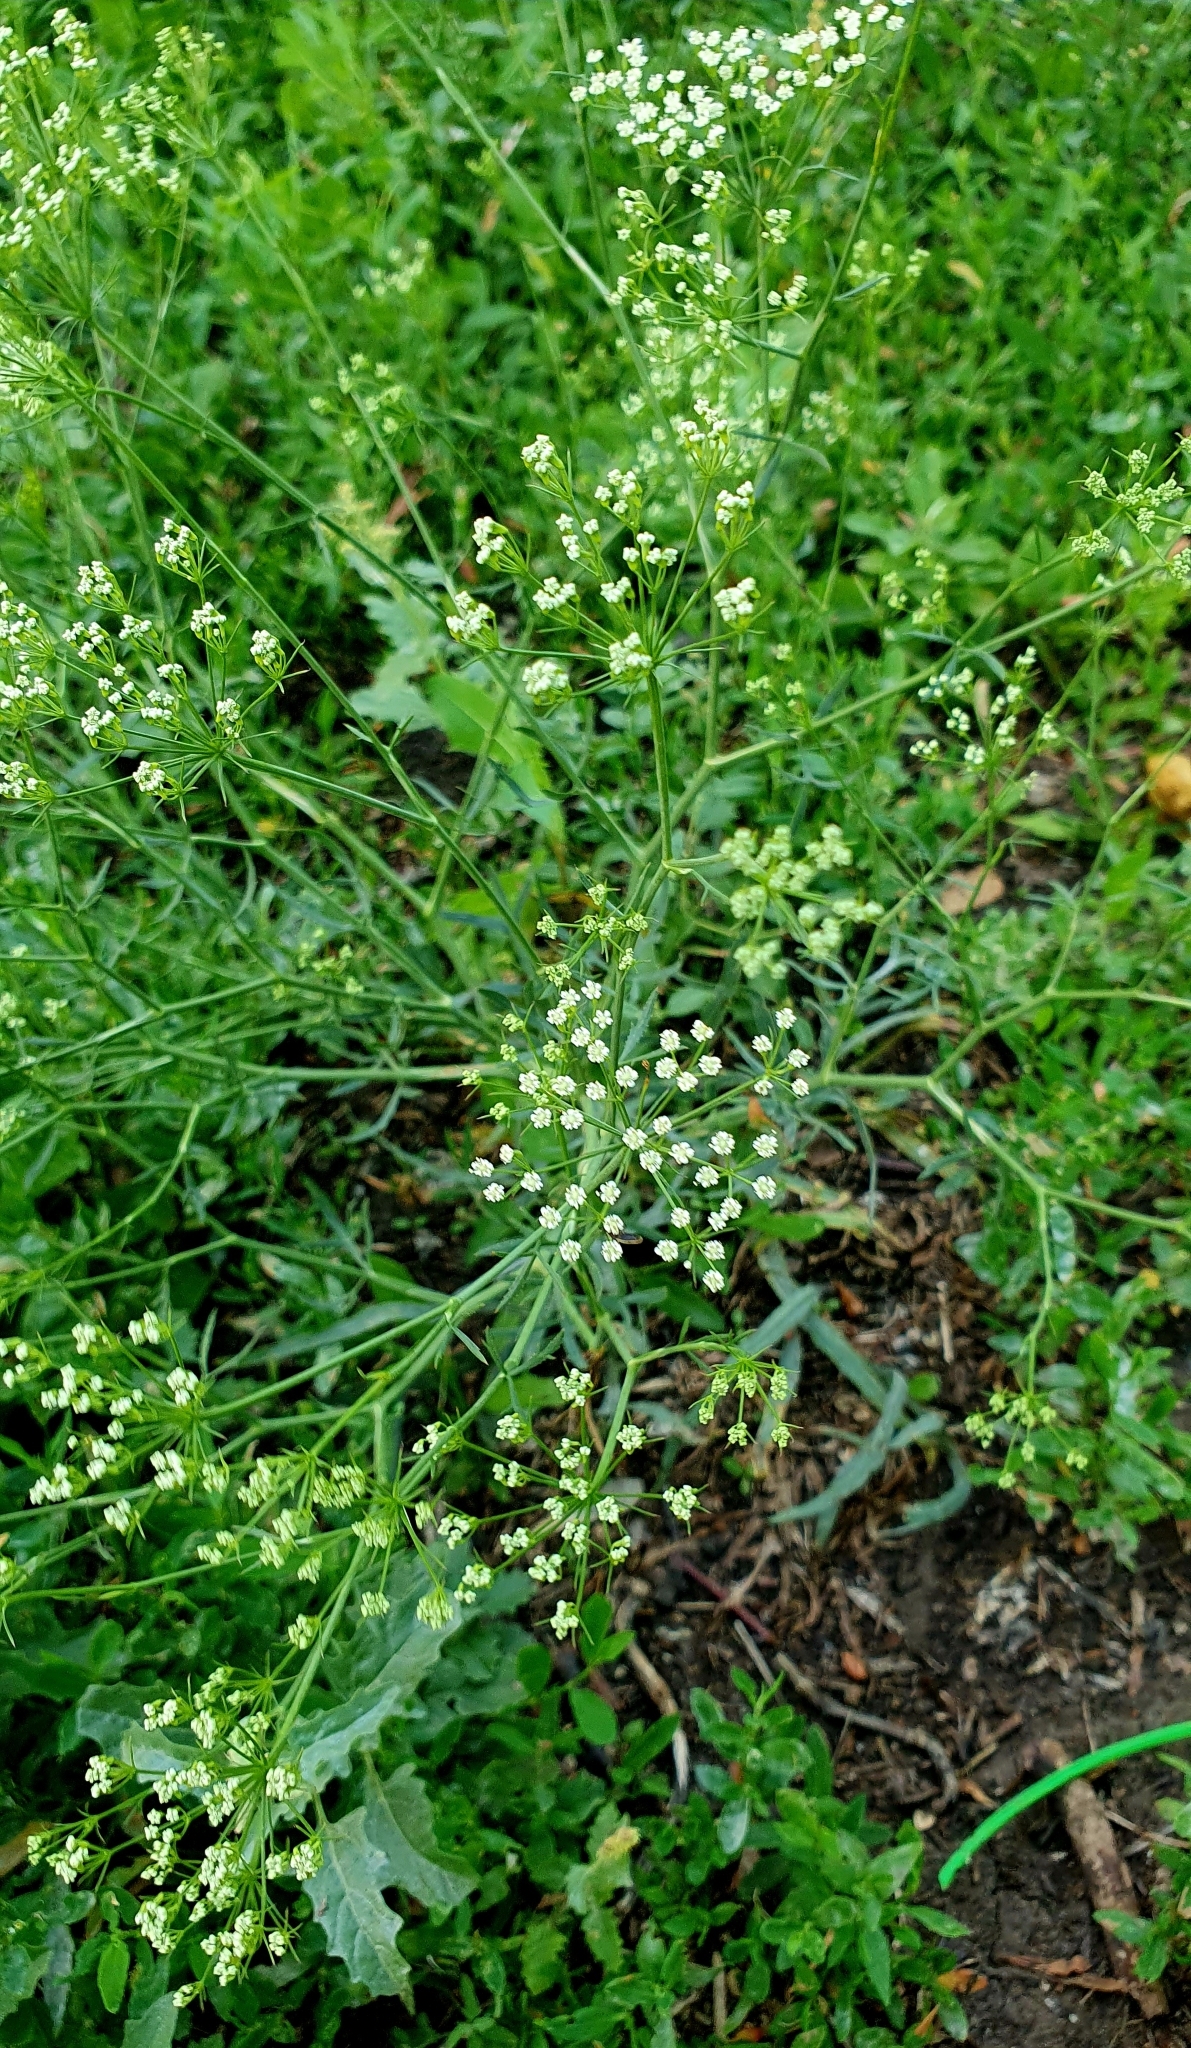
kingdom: Plantae
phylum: Tracheophyta
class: Magnoliopsida
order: Apiales
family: Apiaceae
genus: Falcaria
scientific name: Falcaria vulgaris
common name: Longleaf
